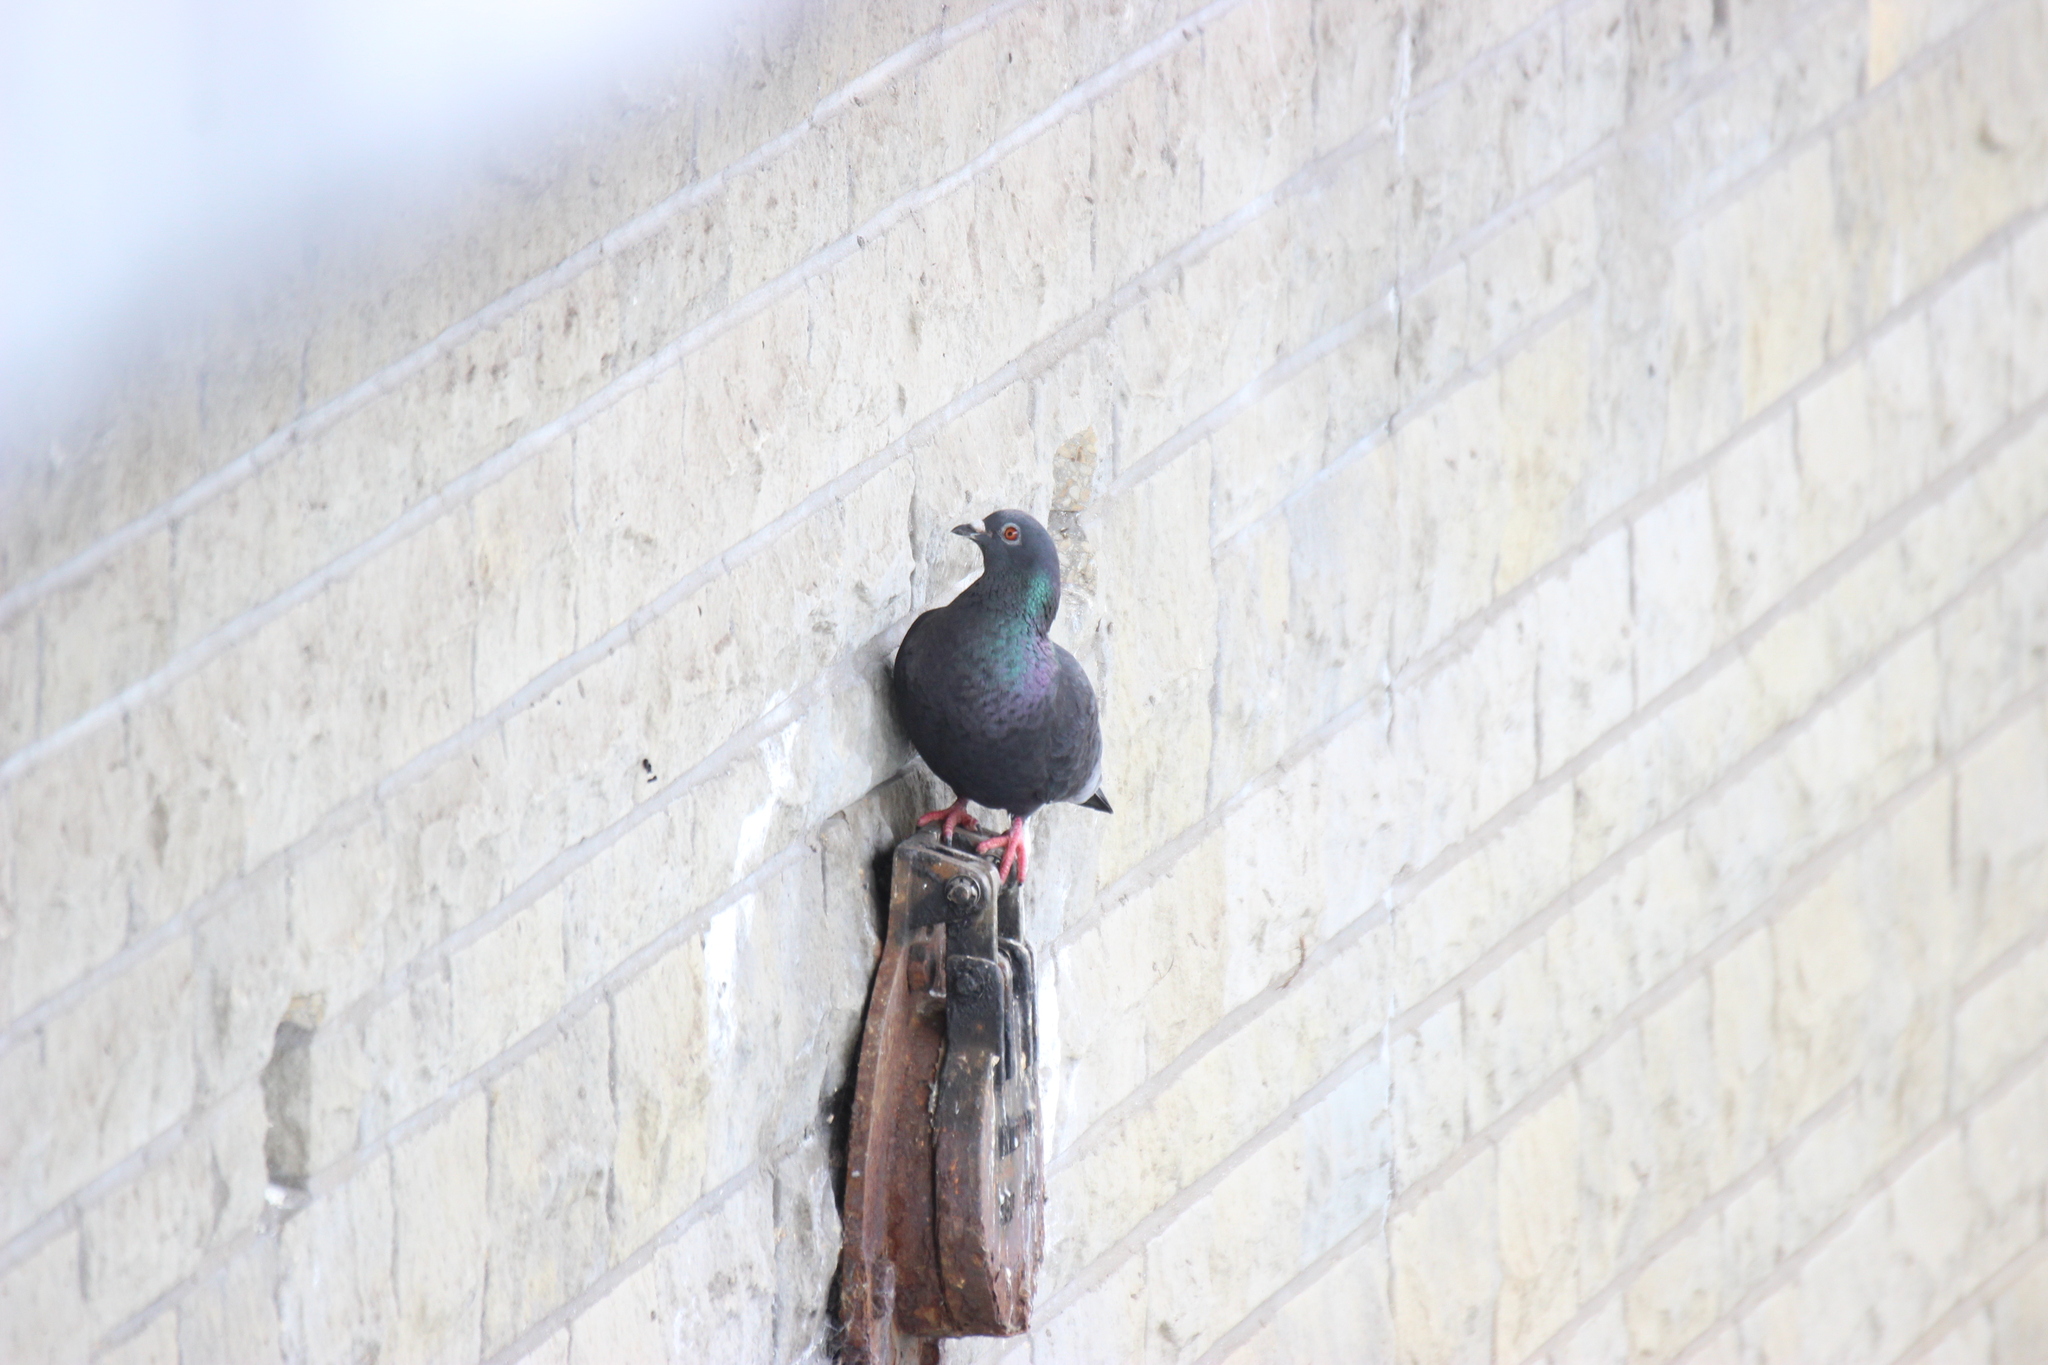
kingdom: Animalia
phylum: Chordata
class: Aves
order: Columbiformes
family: Columbidae
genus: Columba
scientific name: Columba livia
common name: Rock pigeon
